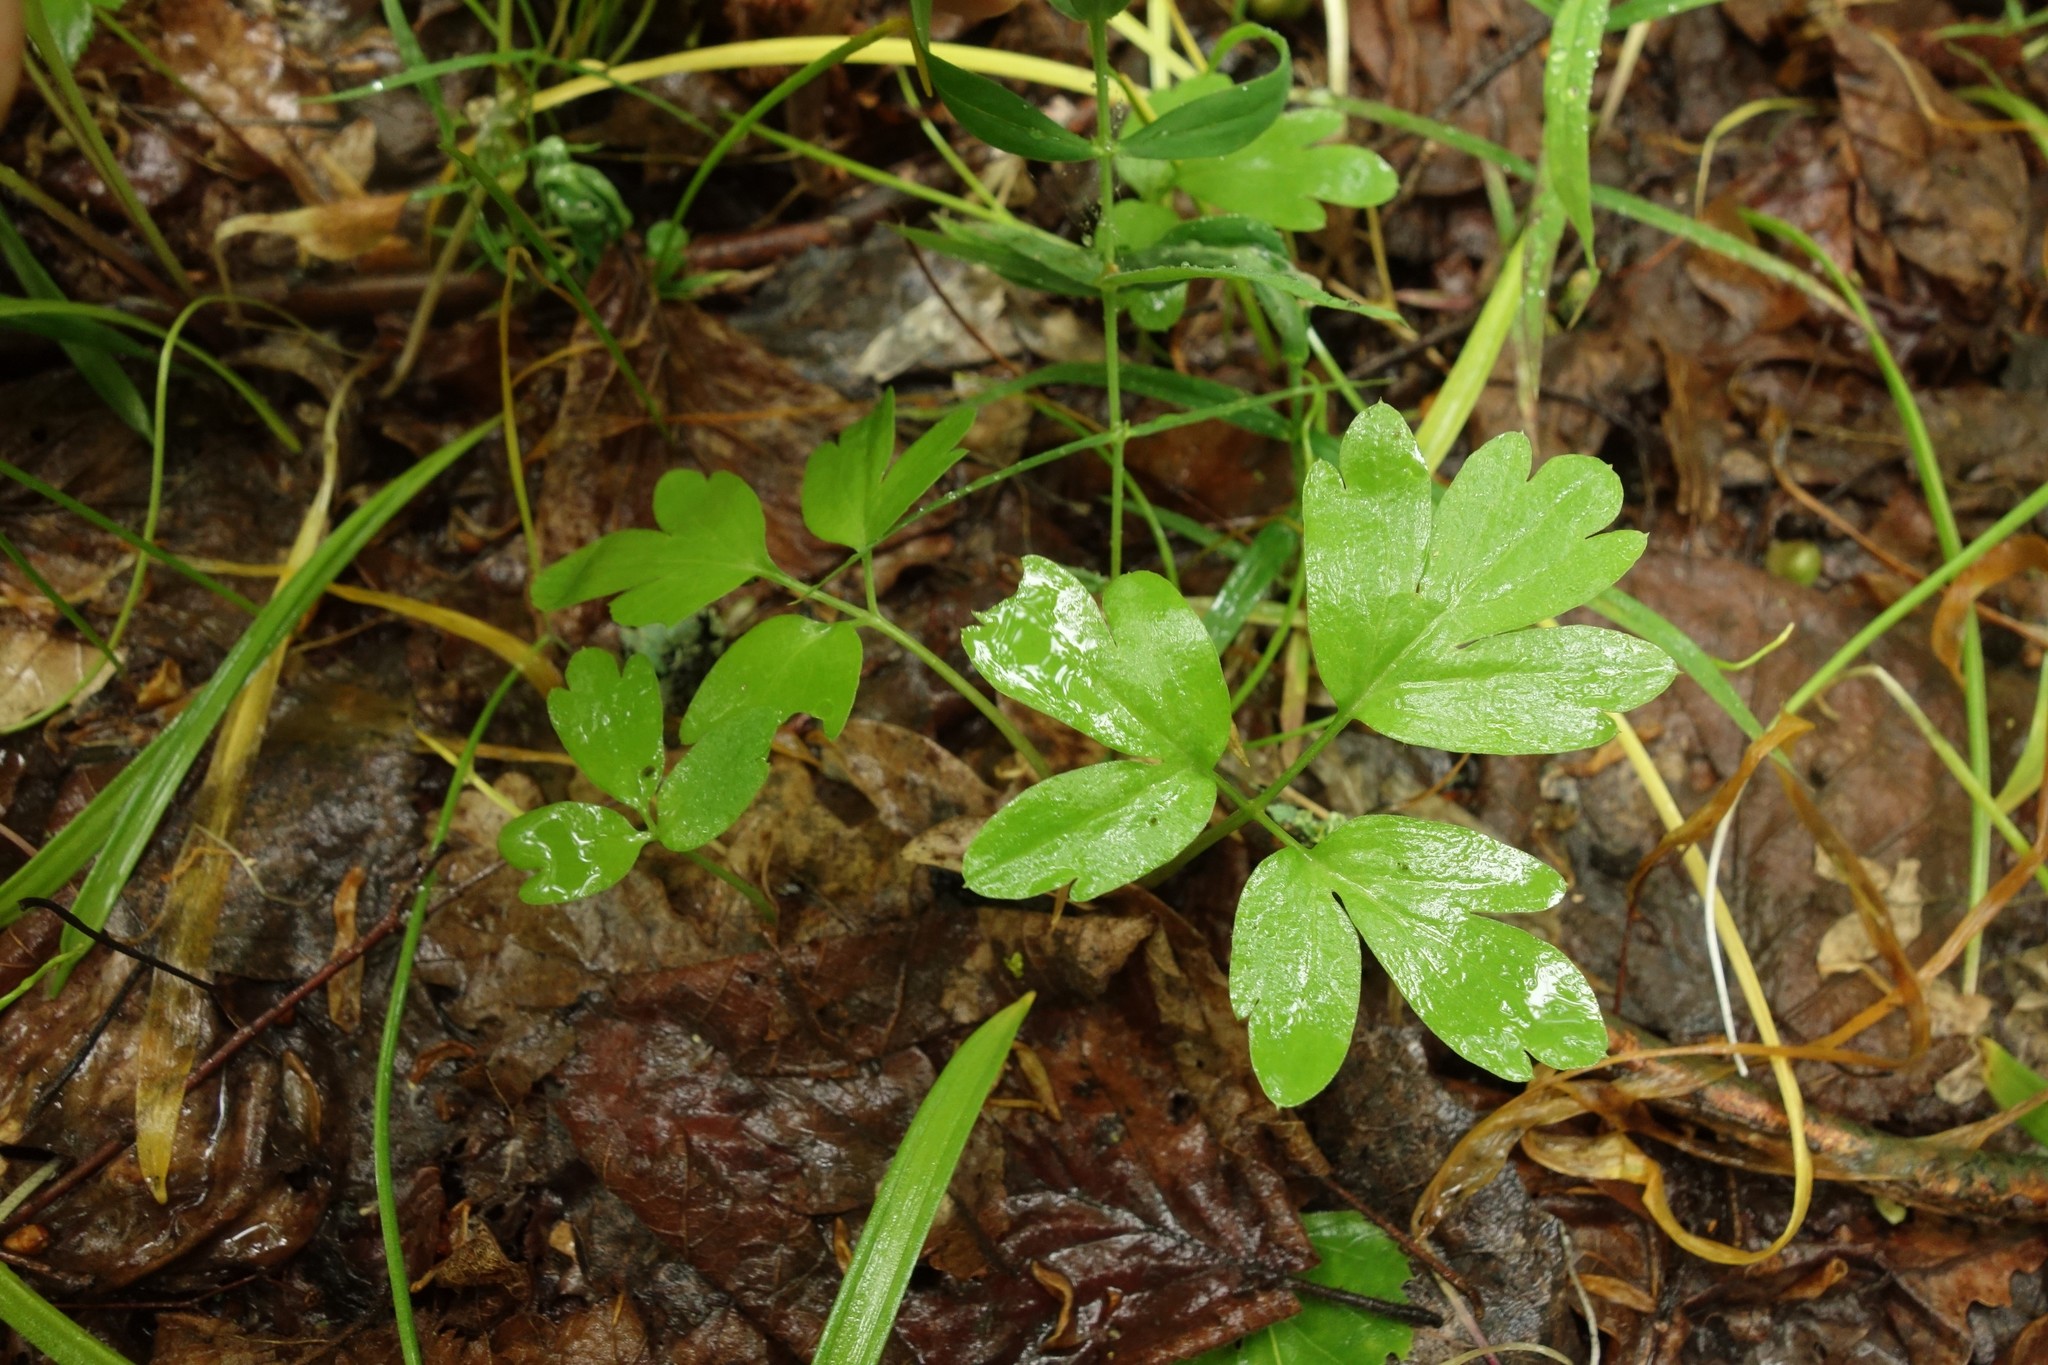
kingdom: Plantae
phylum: Tracheophyta
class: Magnoliopsida
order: Dipsacales
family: Viburnaceae
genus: Adoxa
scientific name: Adoxa moschatellina
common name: Moschatel
